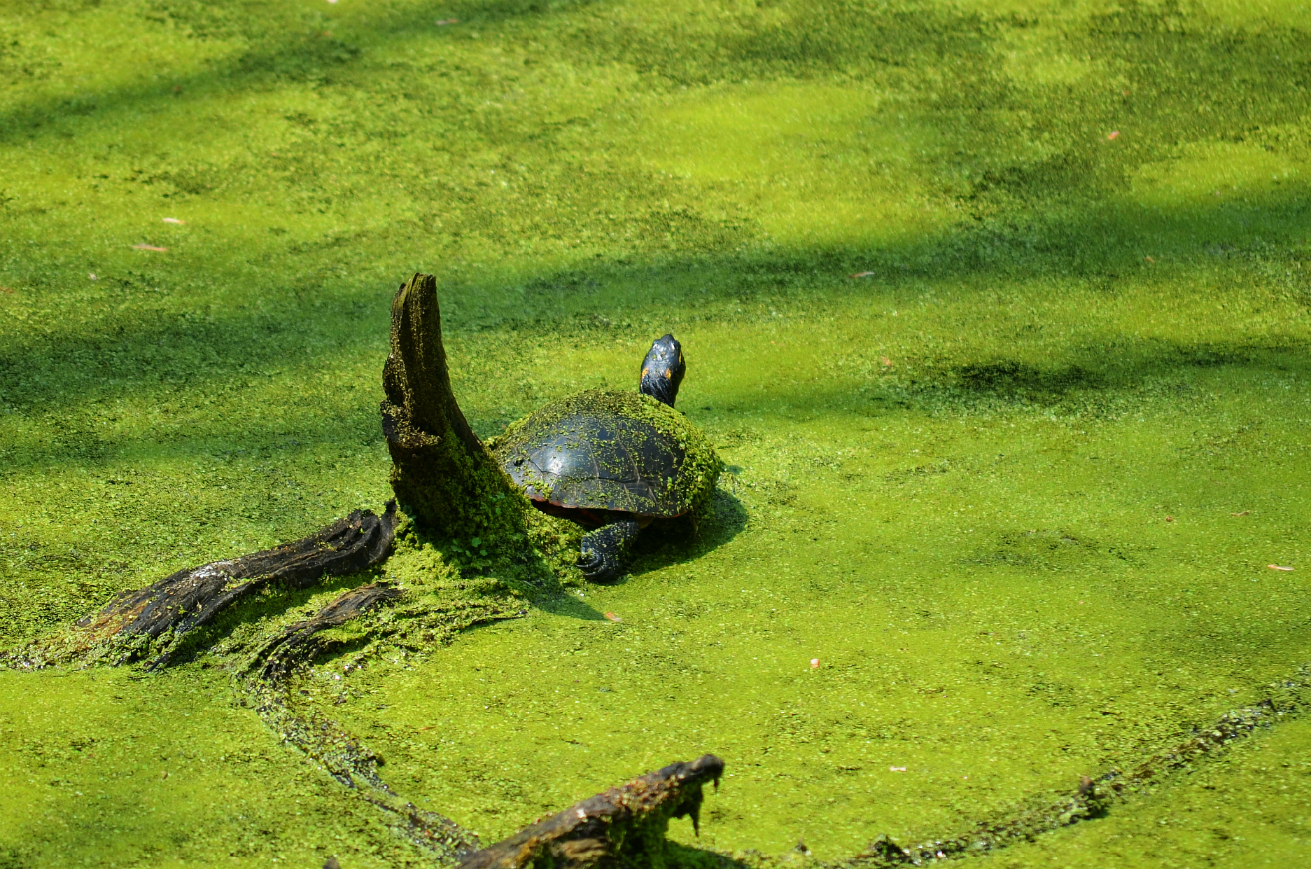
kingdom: Animalia
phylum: Chordata
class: Testudines
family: Emydidae
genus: Chrysemys
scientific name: Chrysemys picta
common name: Painted turtle
